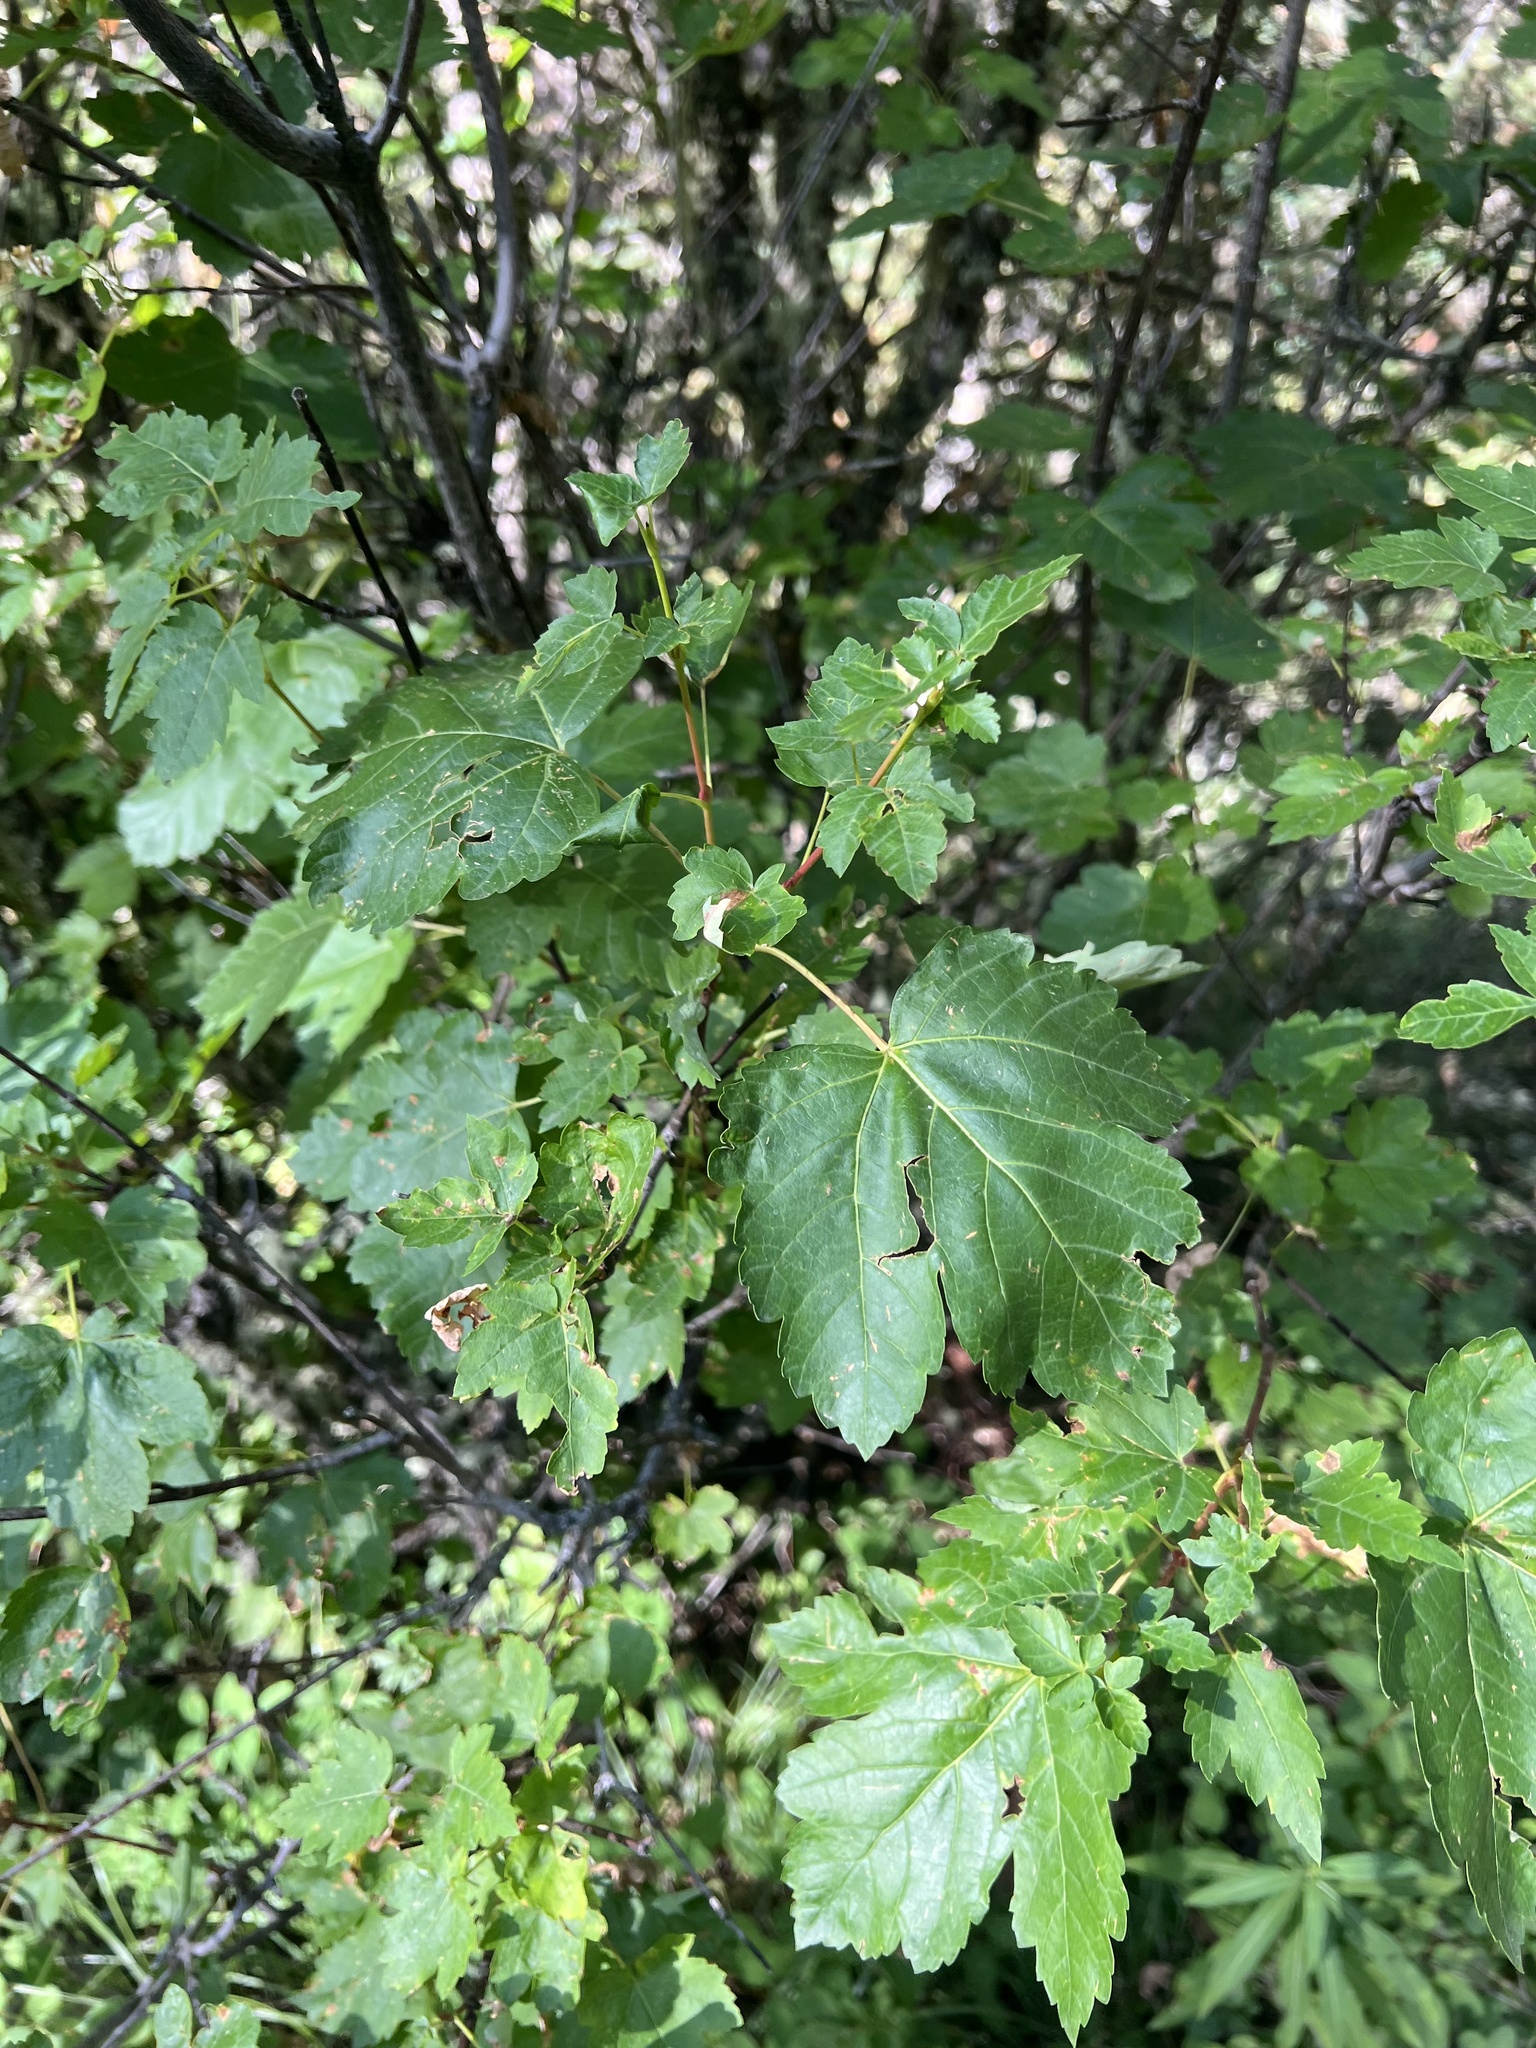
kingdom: Plantae
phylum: Tracheophyta
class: Magnoliopsida
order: Sapindales
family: Sapindaceae
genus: Acer
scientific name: Acer glabrum
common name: Rocky mountain maple
